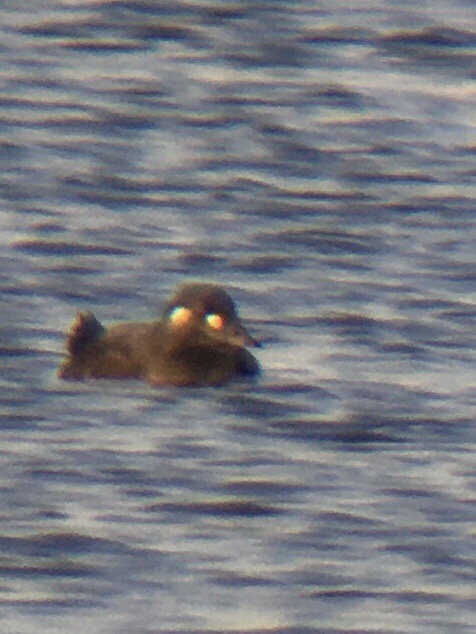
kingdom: Animalia
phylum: Chordata
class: Aves
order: Anseriformes
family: Anatidae
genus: Melanitta
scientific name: Melanitta deglandi
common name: White-winged scoter
